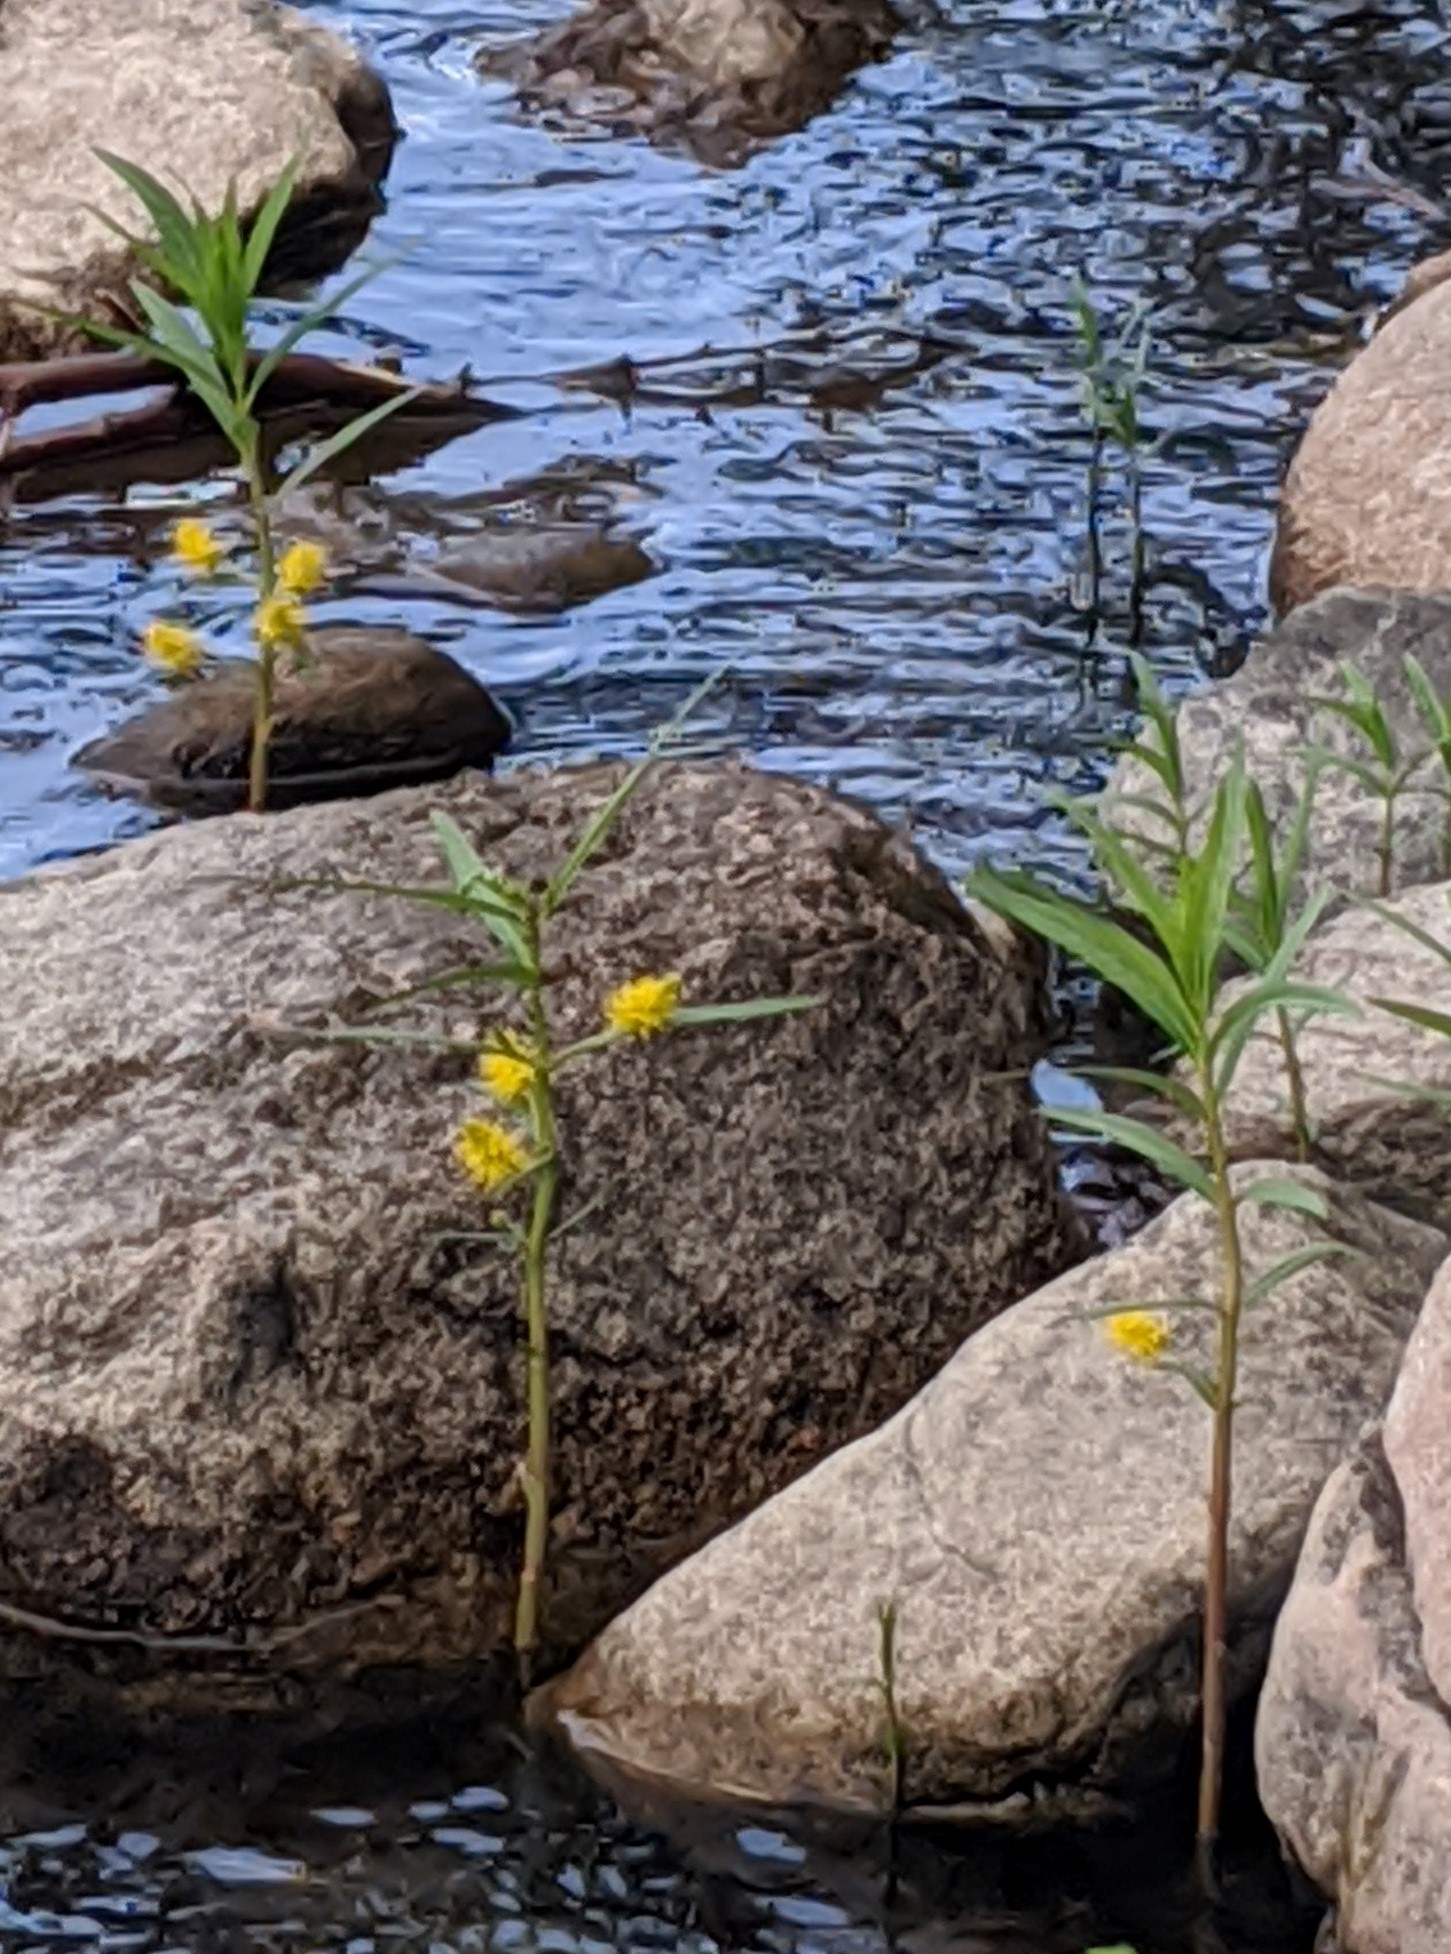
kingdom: Plantae
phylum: Tracheophyta
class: Magnoliopsida
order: Ericales
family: Primulaceae
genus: Lysimachia
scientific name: Lysimachia thyrsiflora
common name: Tufted loosestrife
